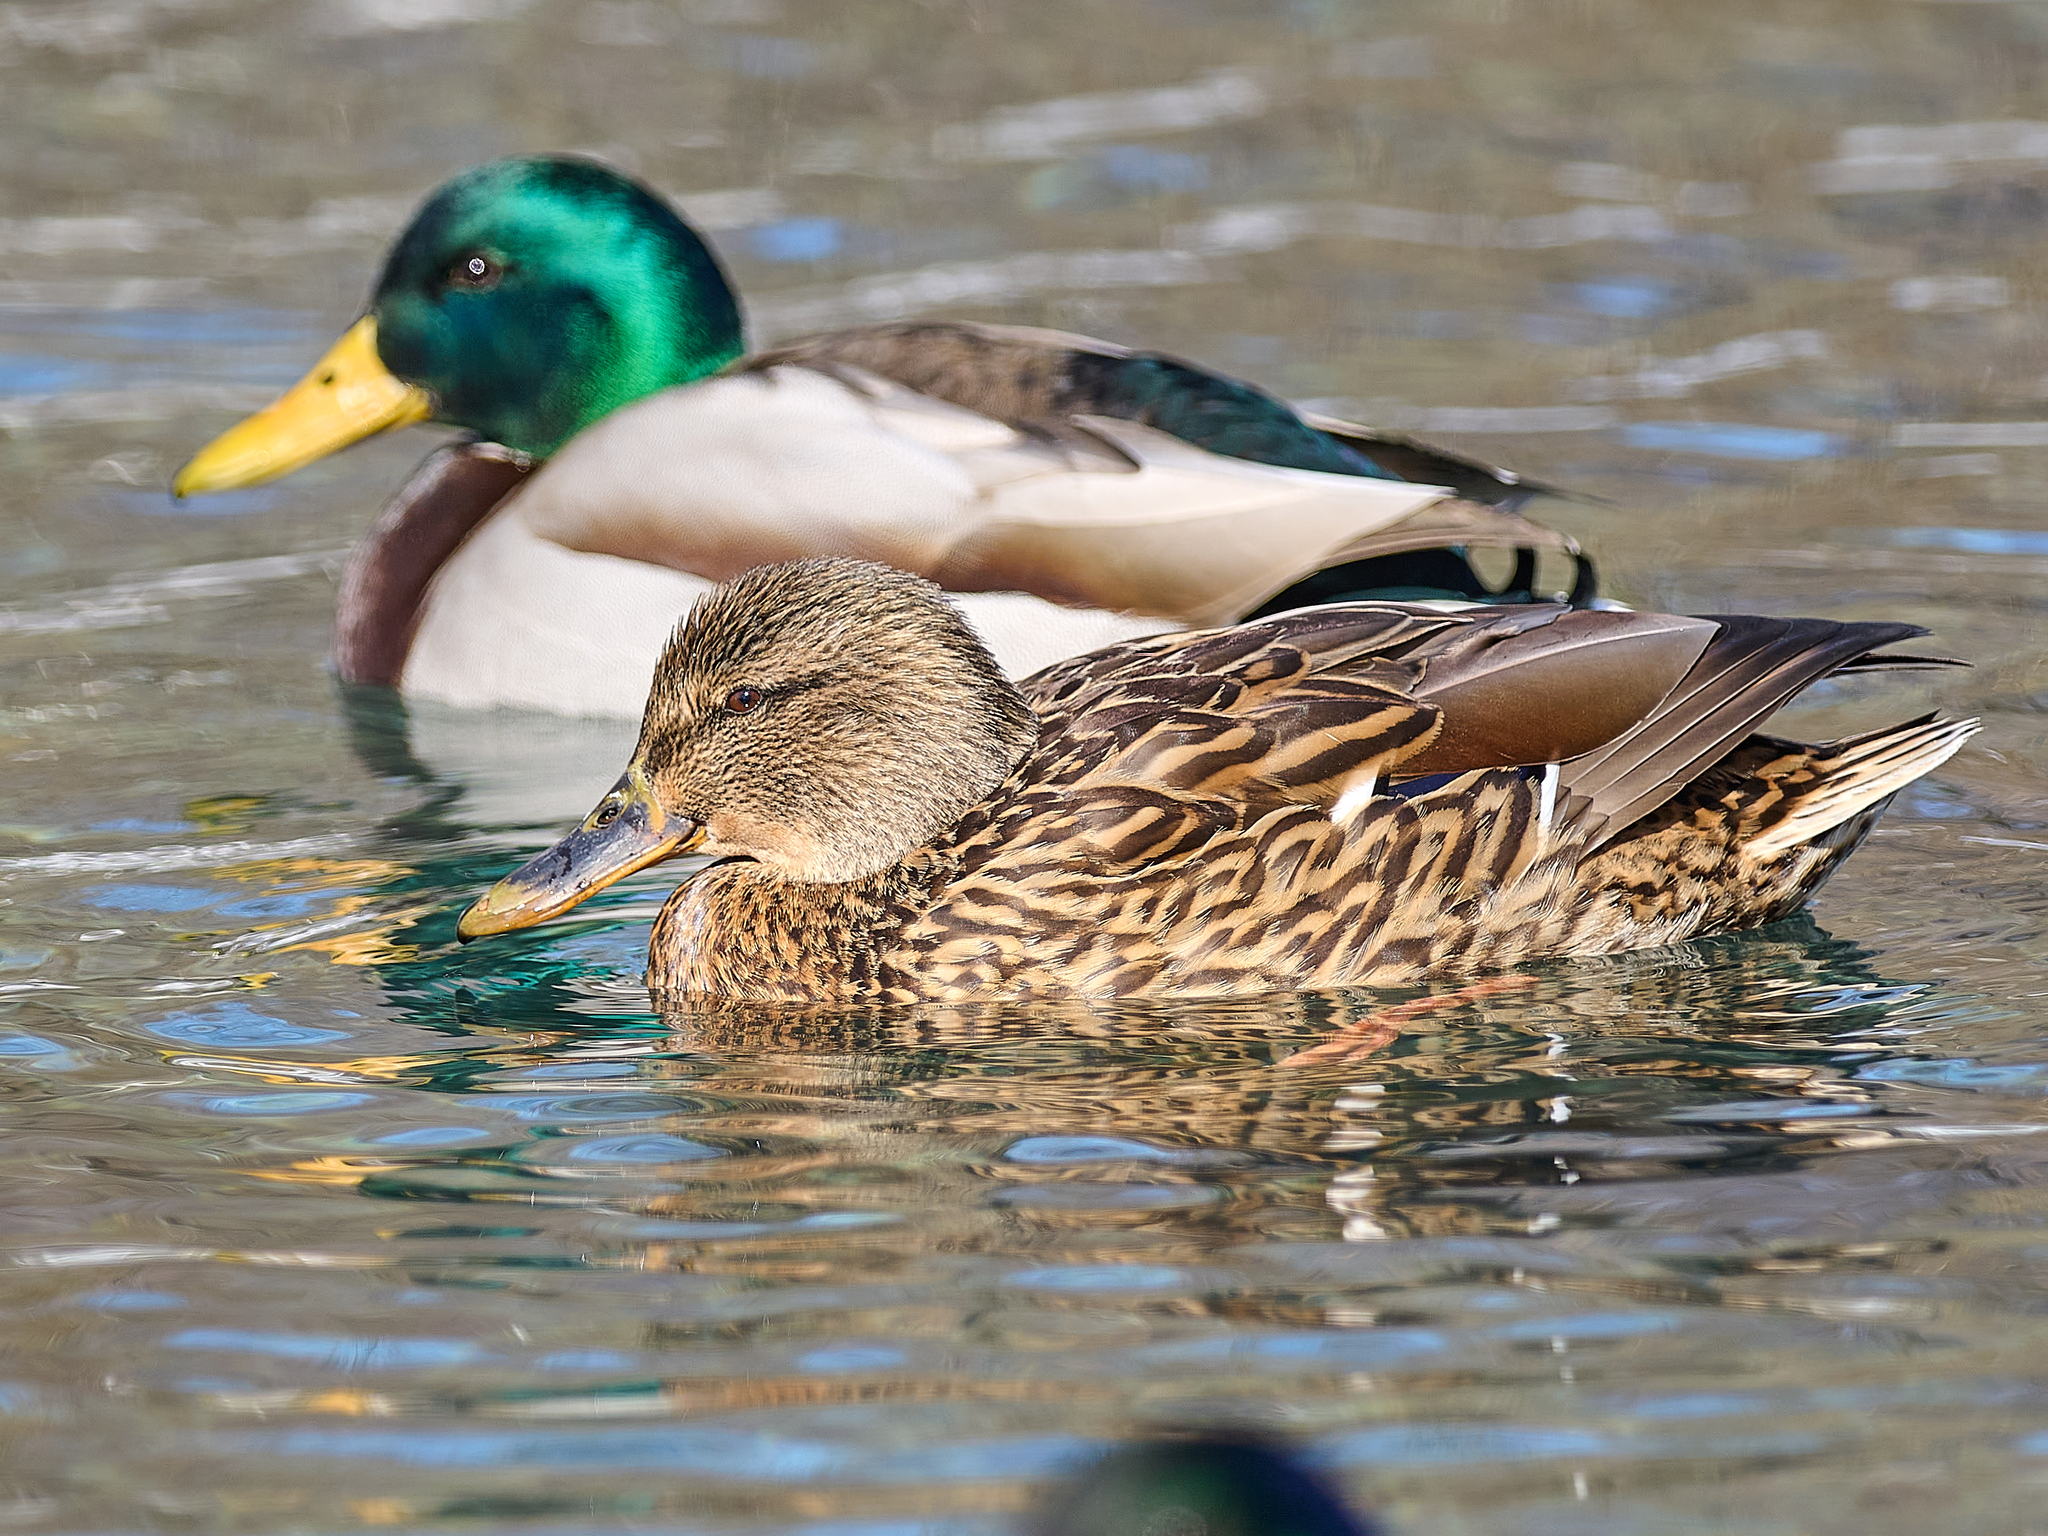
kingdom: Animalia
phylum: Chordata
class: Aves
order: Anseriformes
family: Anatidae
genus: Anas
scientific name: Anas platyrhynchos
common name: Mallard
